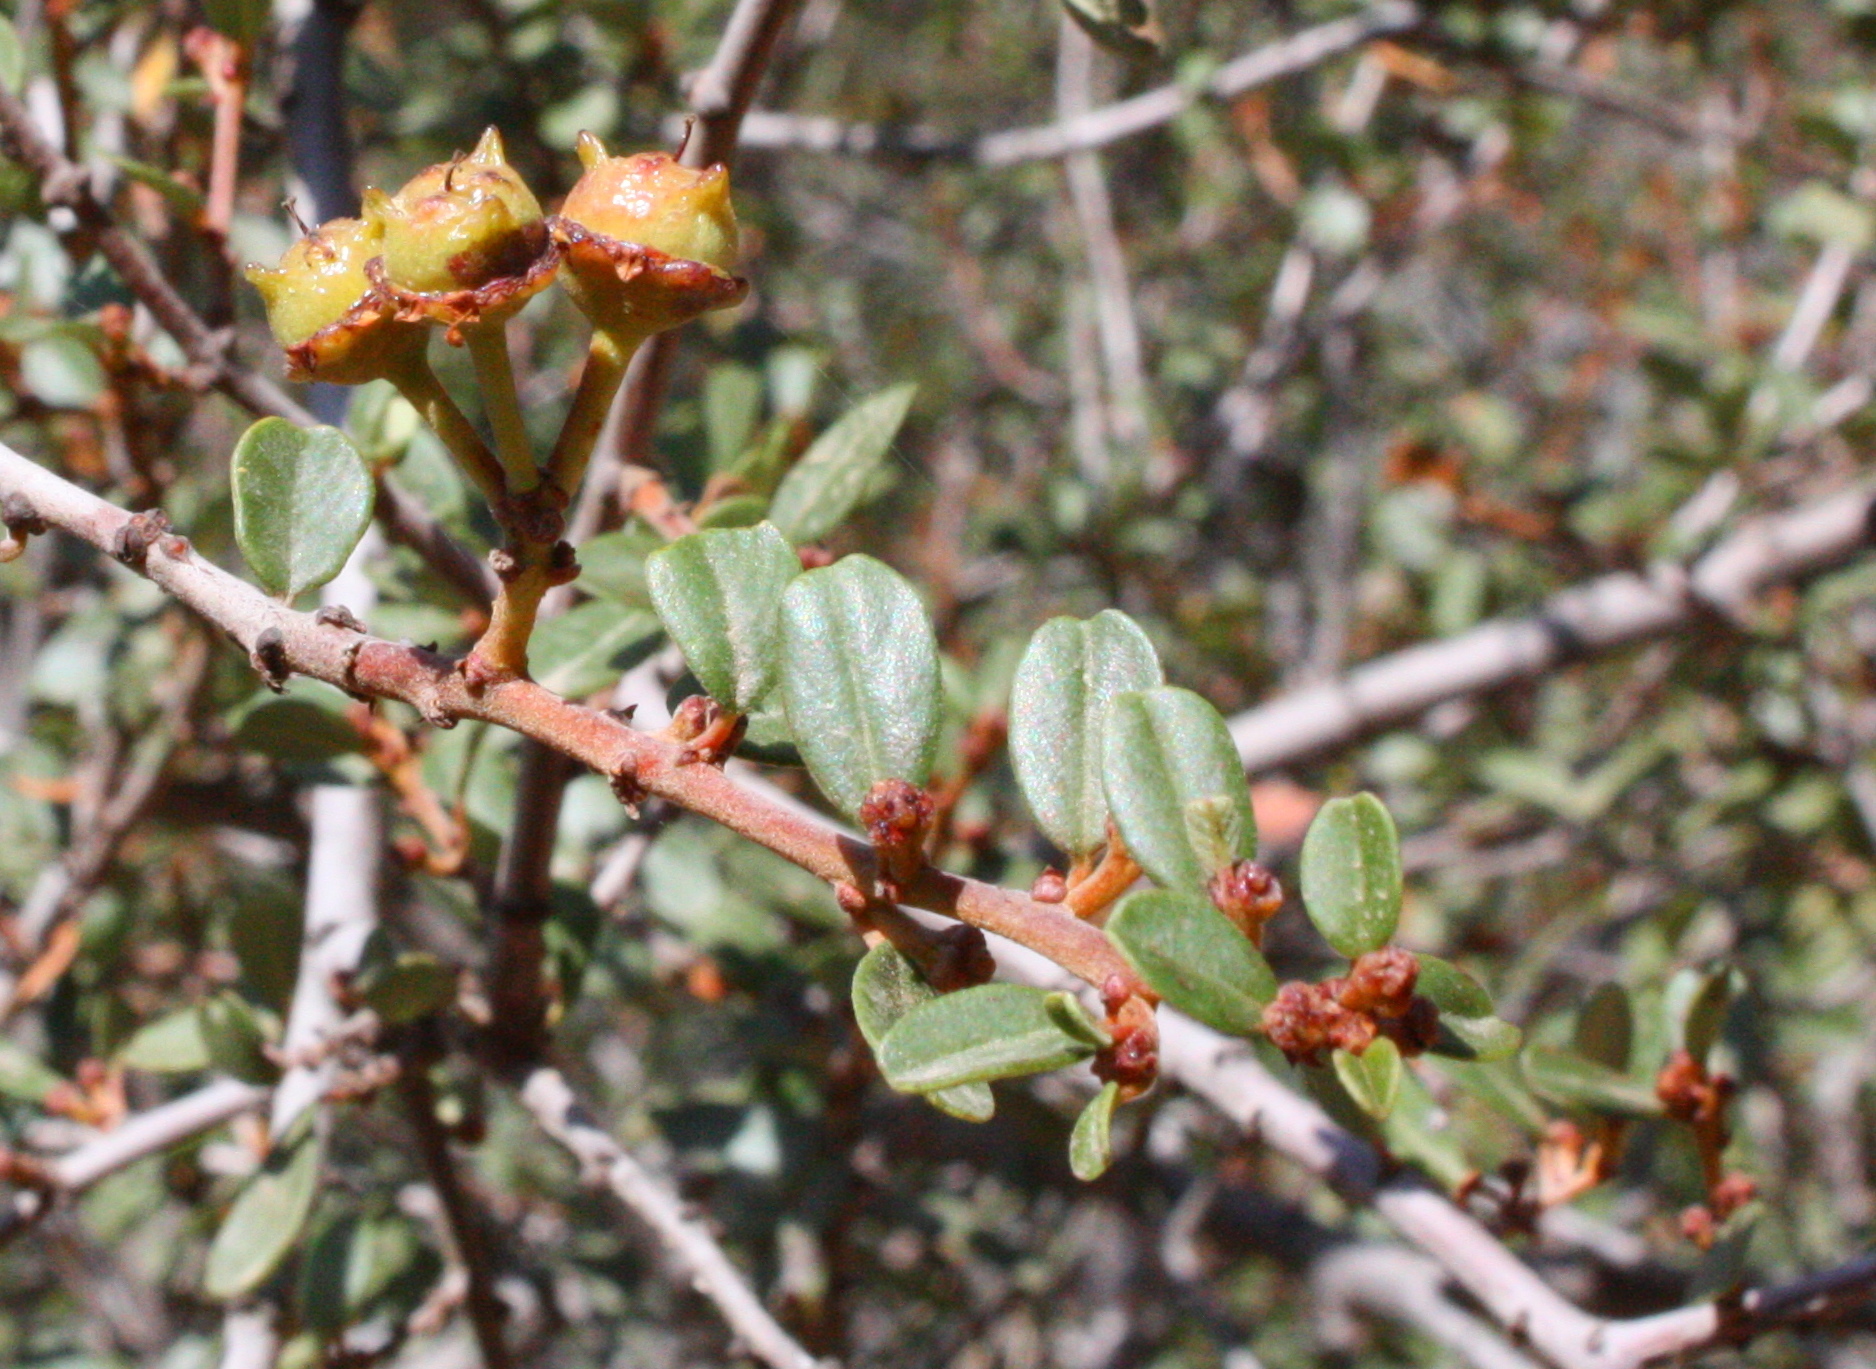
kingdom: Plantae
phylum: Tracheophyta
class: Magnoliopsida
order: Rosales
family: Rhamnaceae
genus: Ceanothus
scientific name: Ceanothus megacarpus
